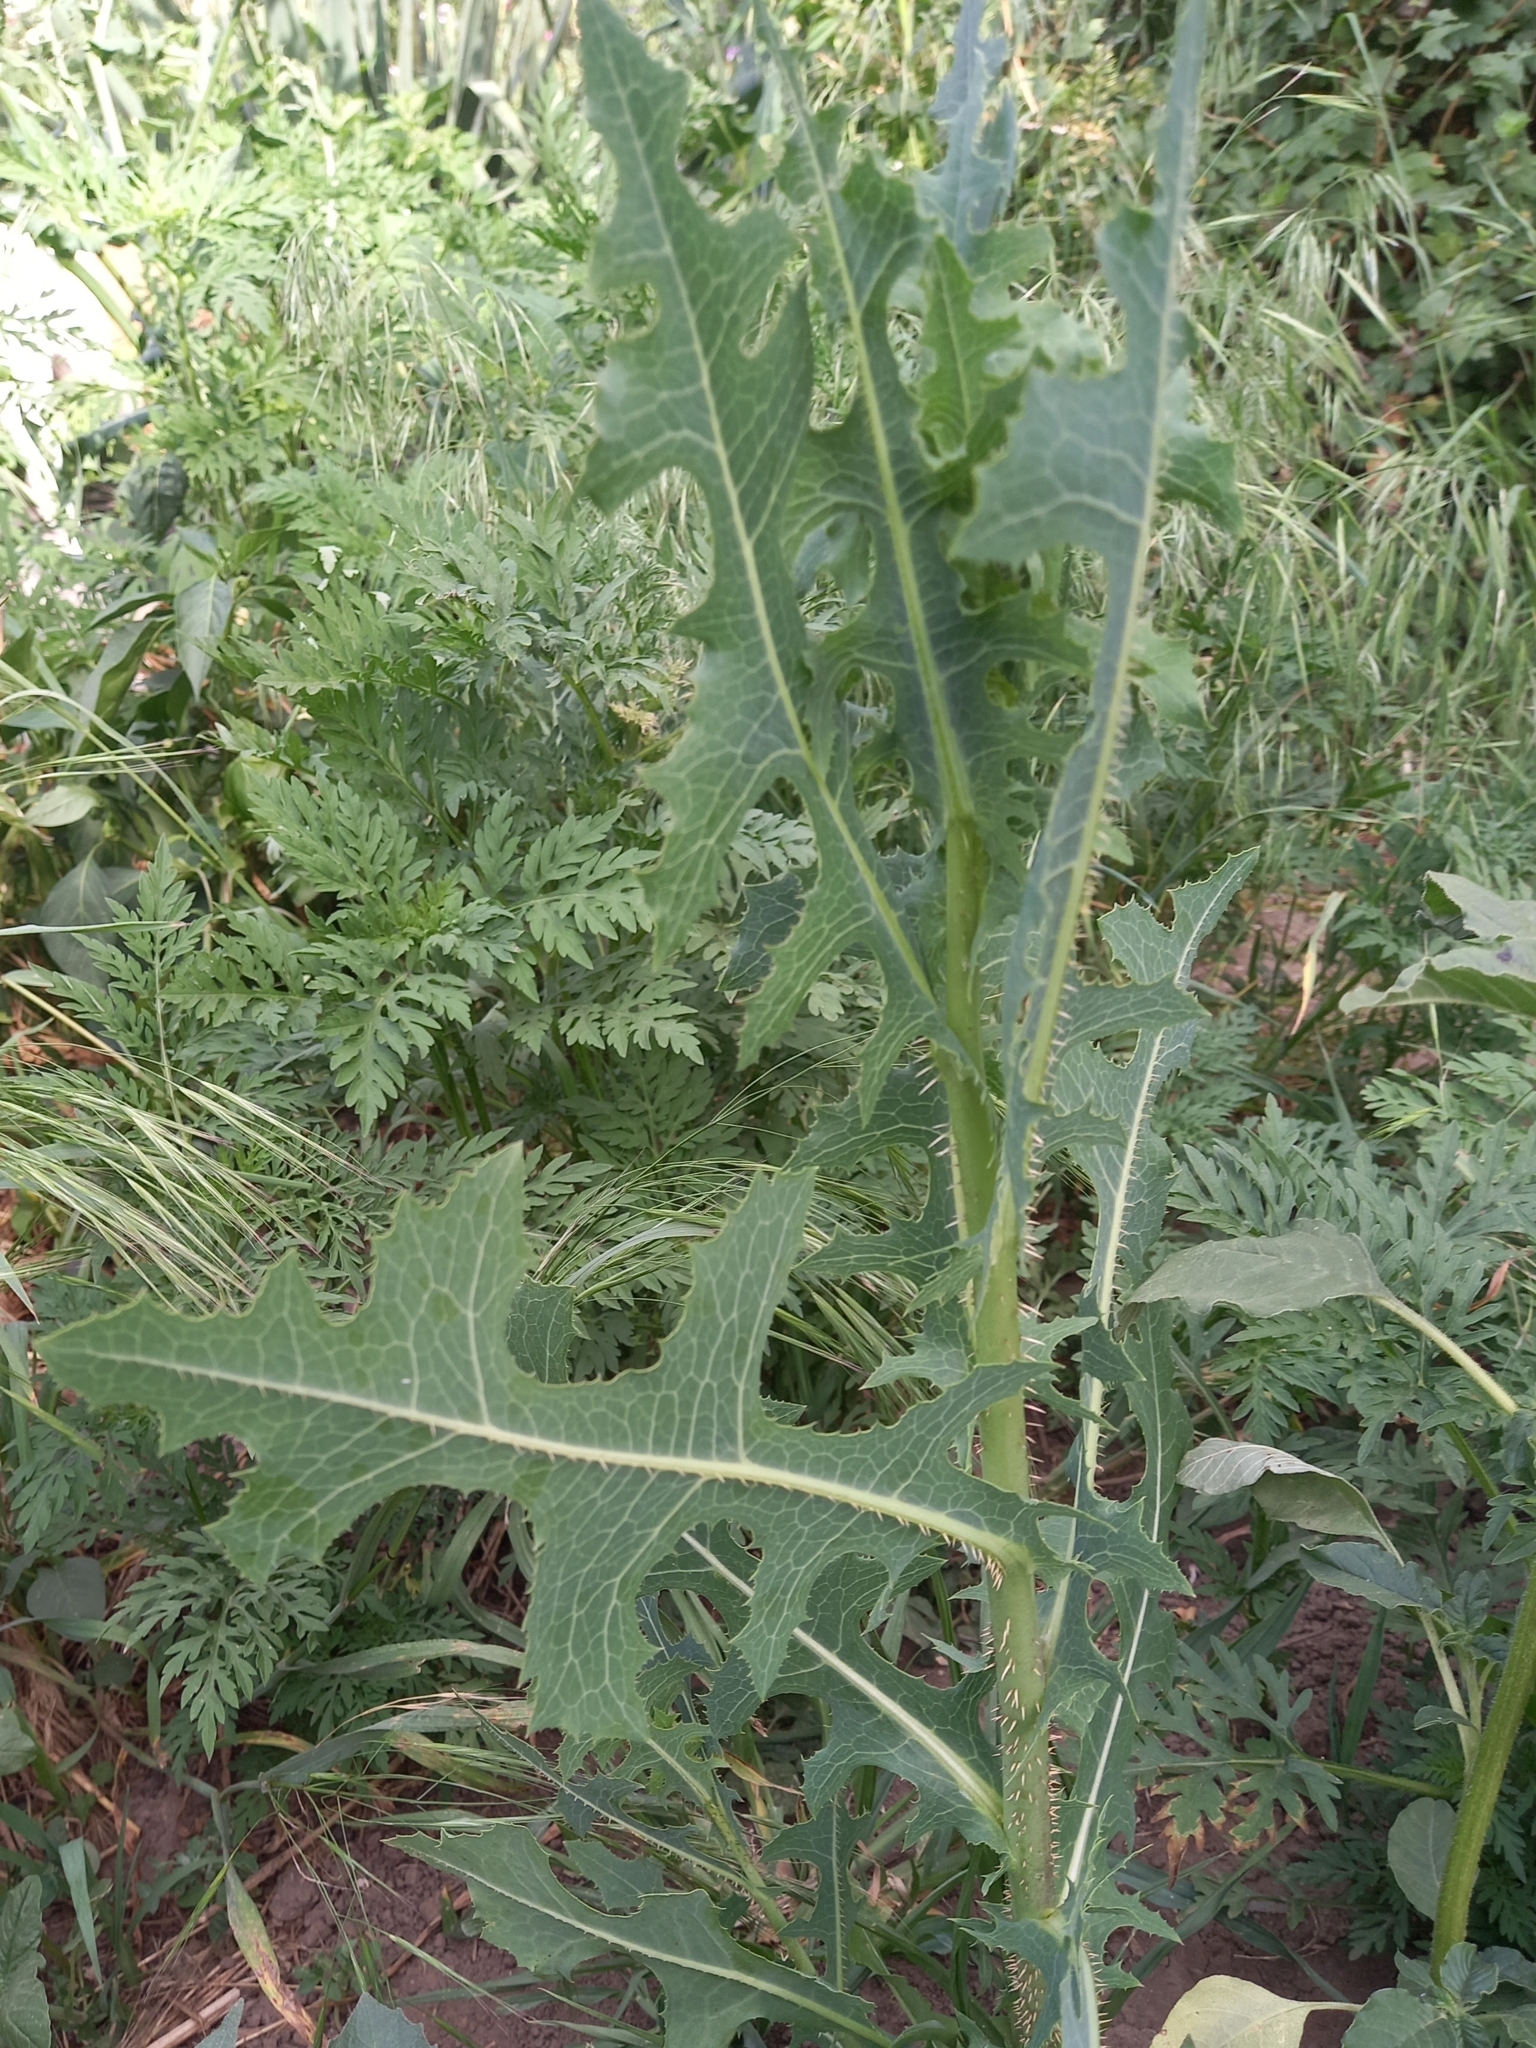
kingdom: Plantae
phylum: Tracheophyta
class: Magnoliopsida
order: Asterales
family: Asteraceae
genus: Lactuca
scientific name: Lactuca serriola
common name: Prickly lettuce
